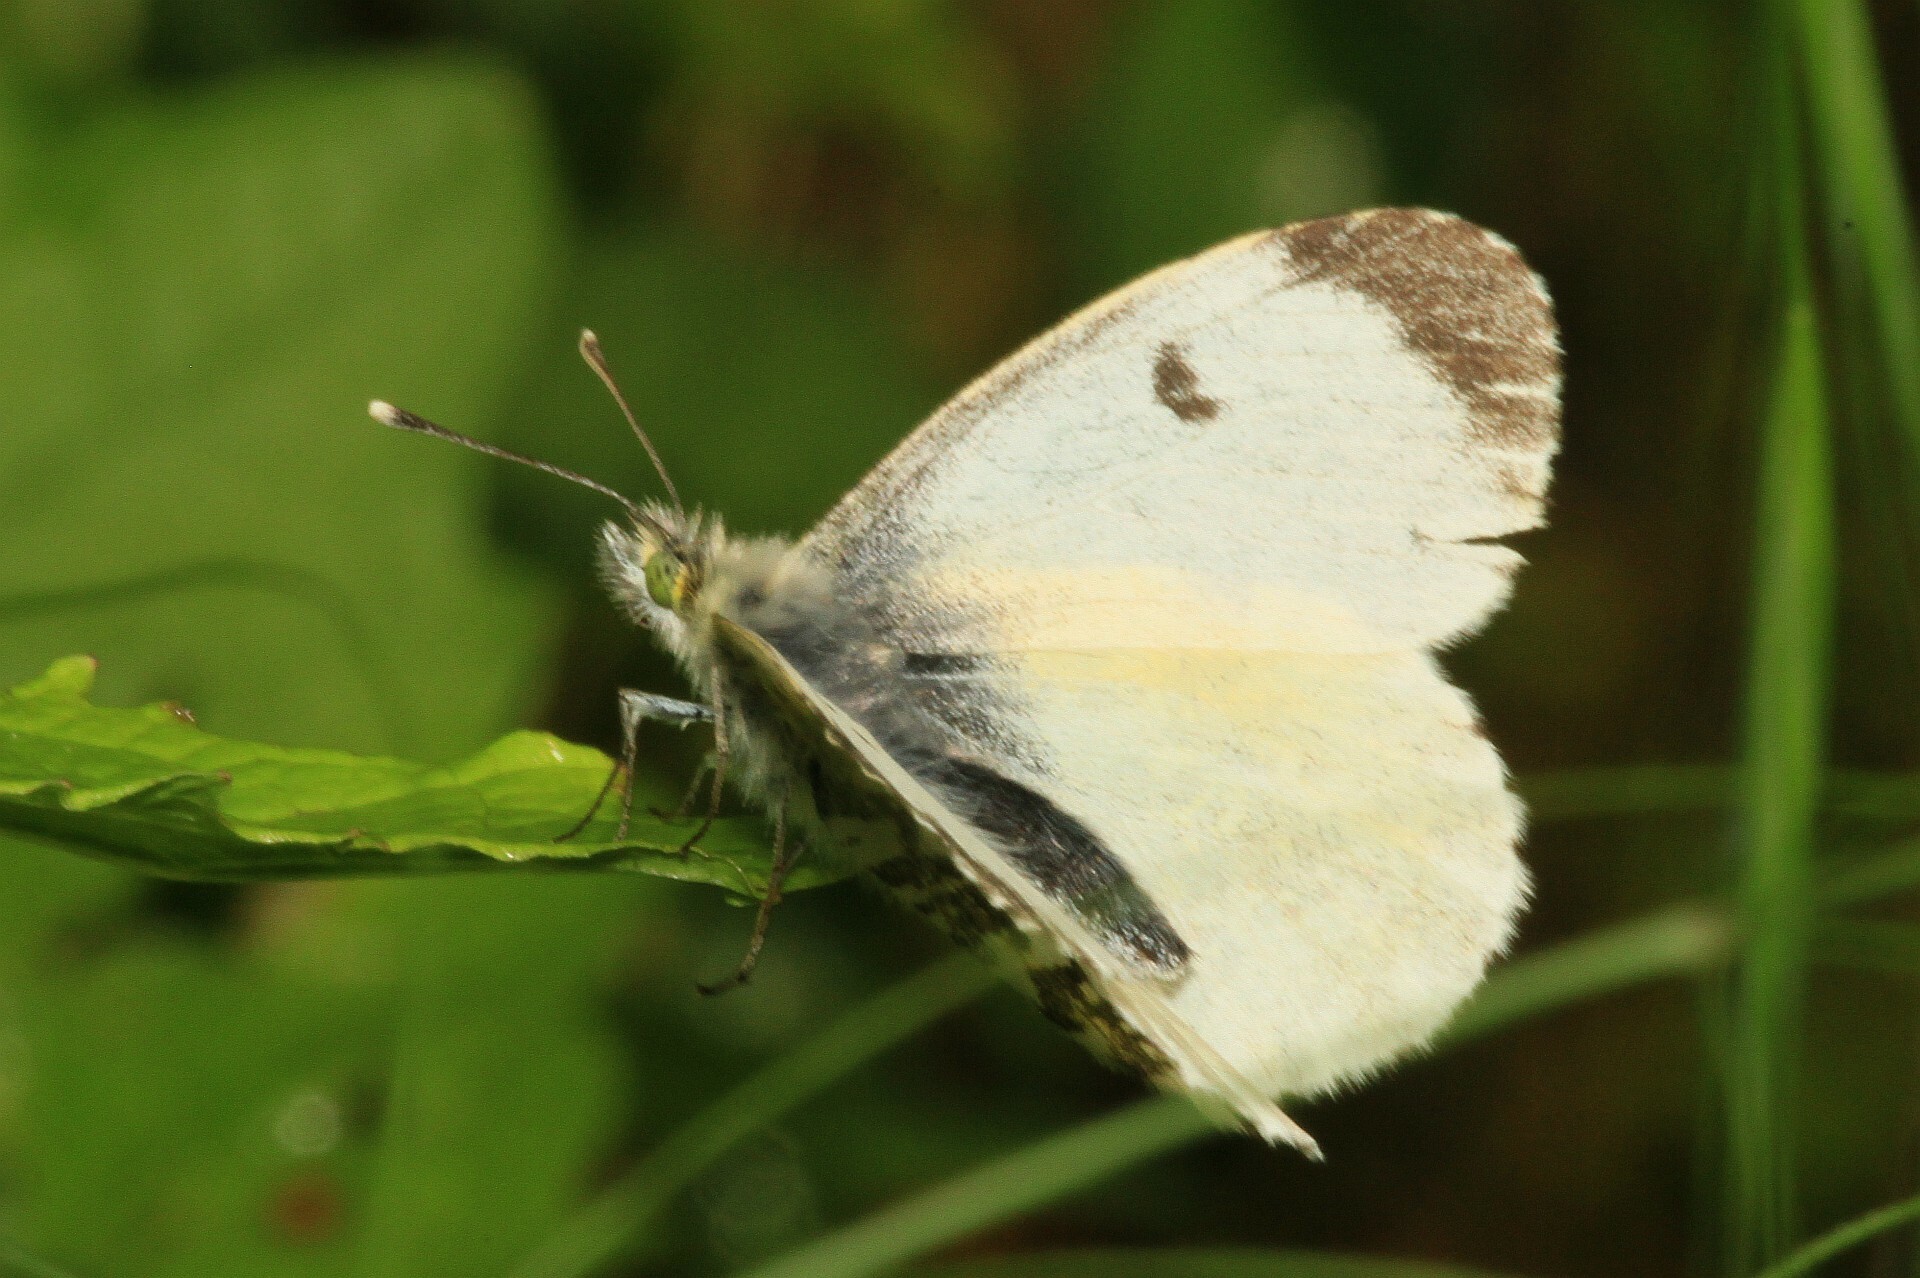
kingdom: Animalia
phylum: Arthropoda
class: Insecta
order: Lepidoptera
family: Pieridae
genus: Anthocharis
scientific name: Anthocharis cardamines
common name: Orange-tip
